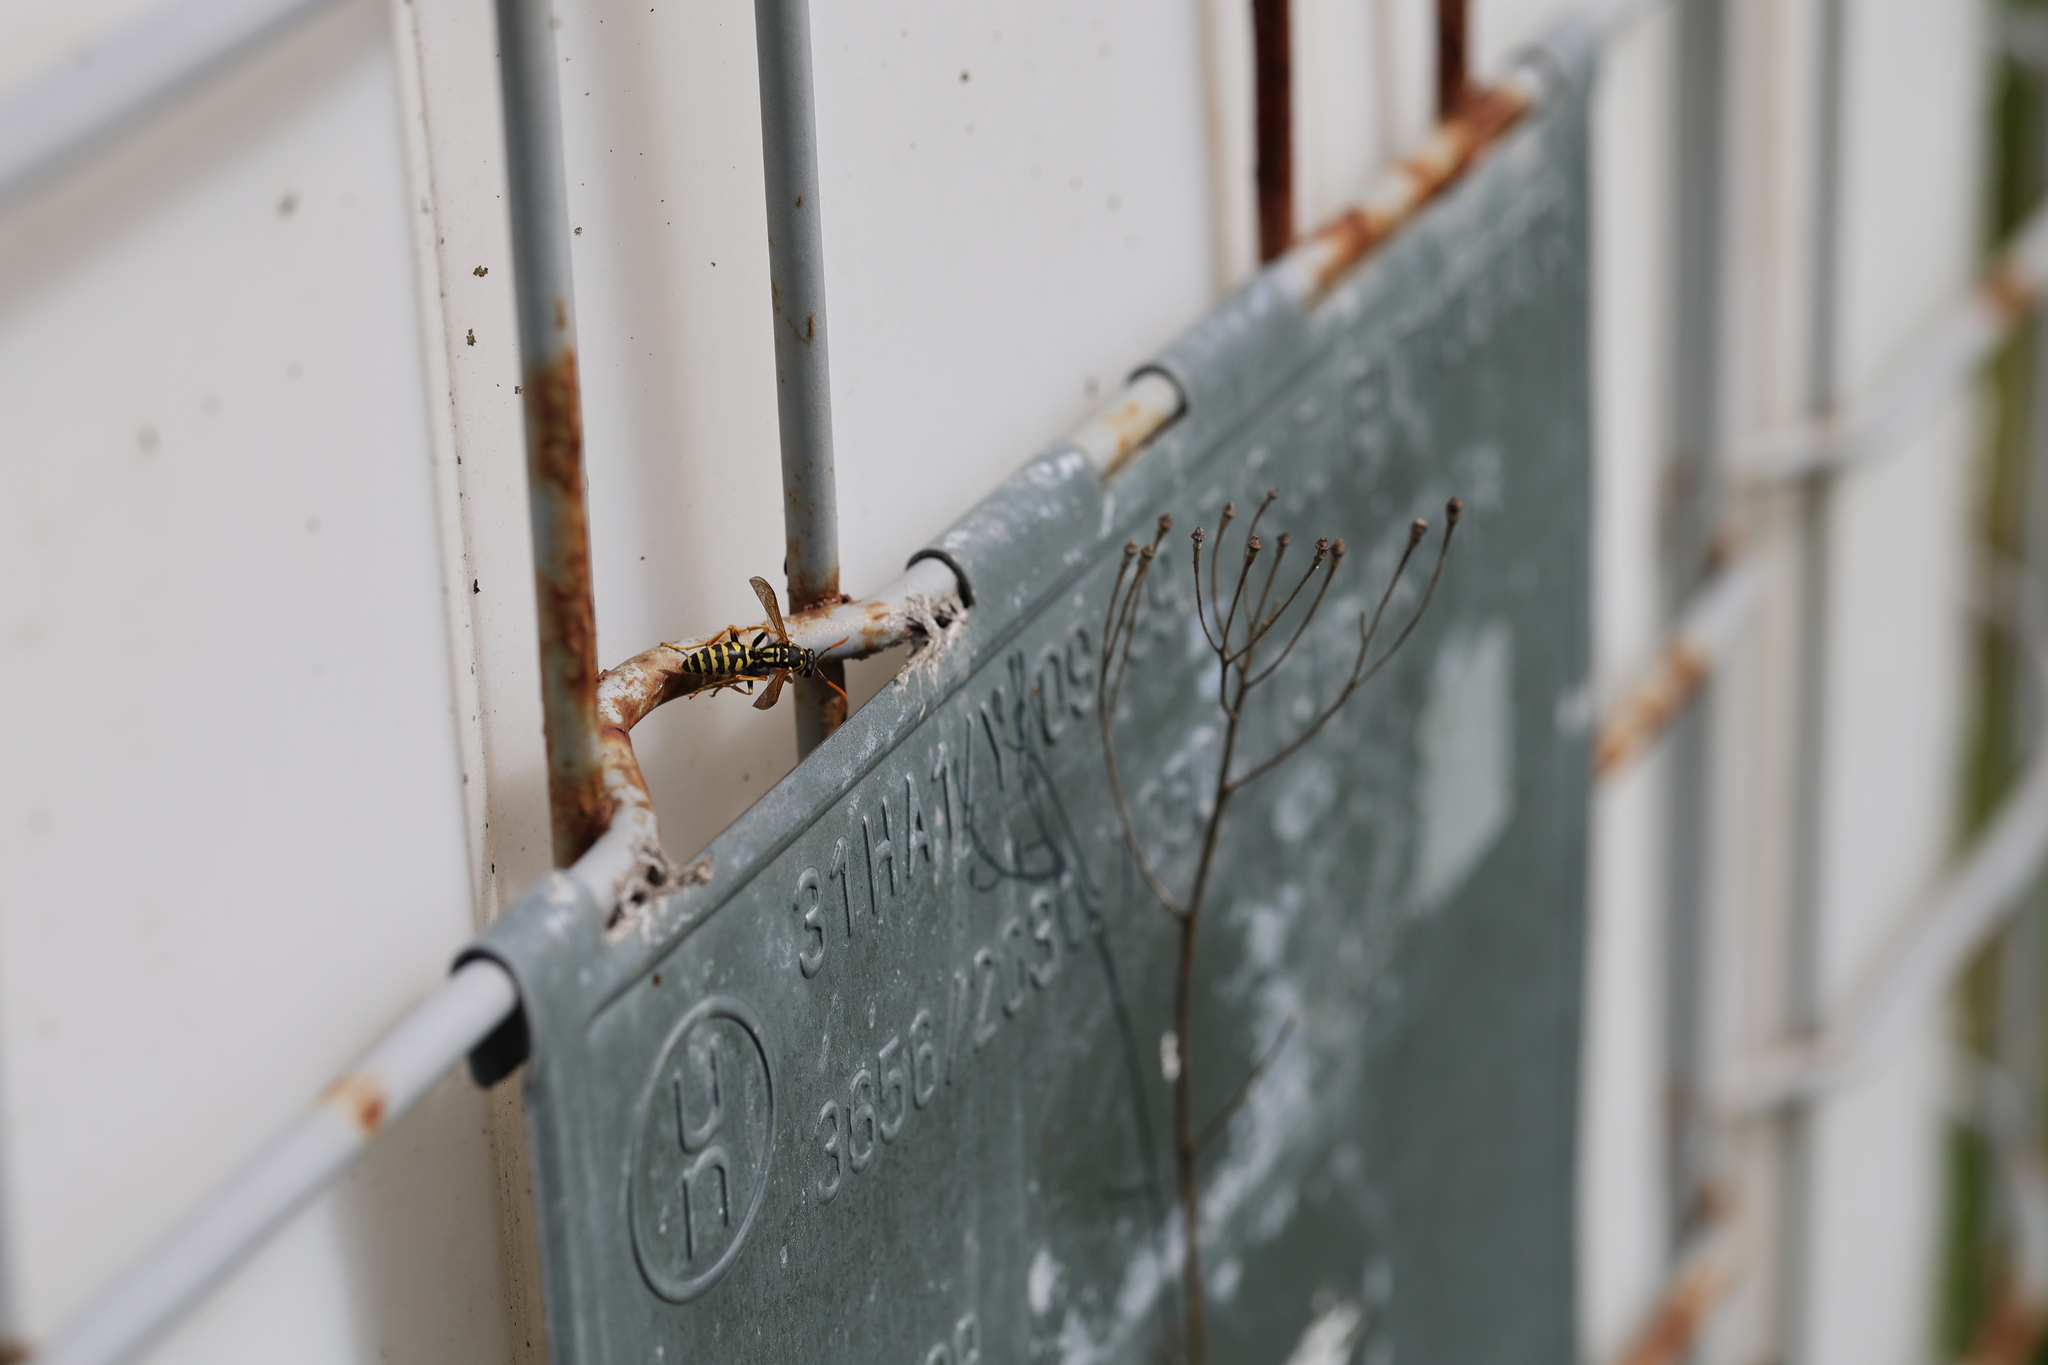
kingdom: Animalia
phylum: Arthropoda
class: Insecta
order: Hymenoptera
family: Eumenidae
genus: Polistes
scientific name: Polistes dominula
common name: Paper wasp
